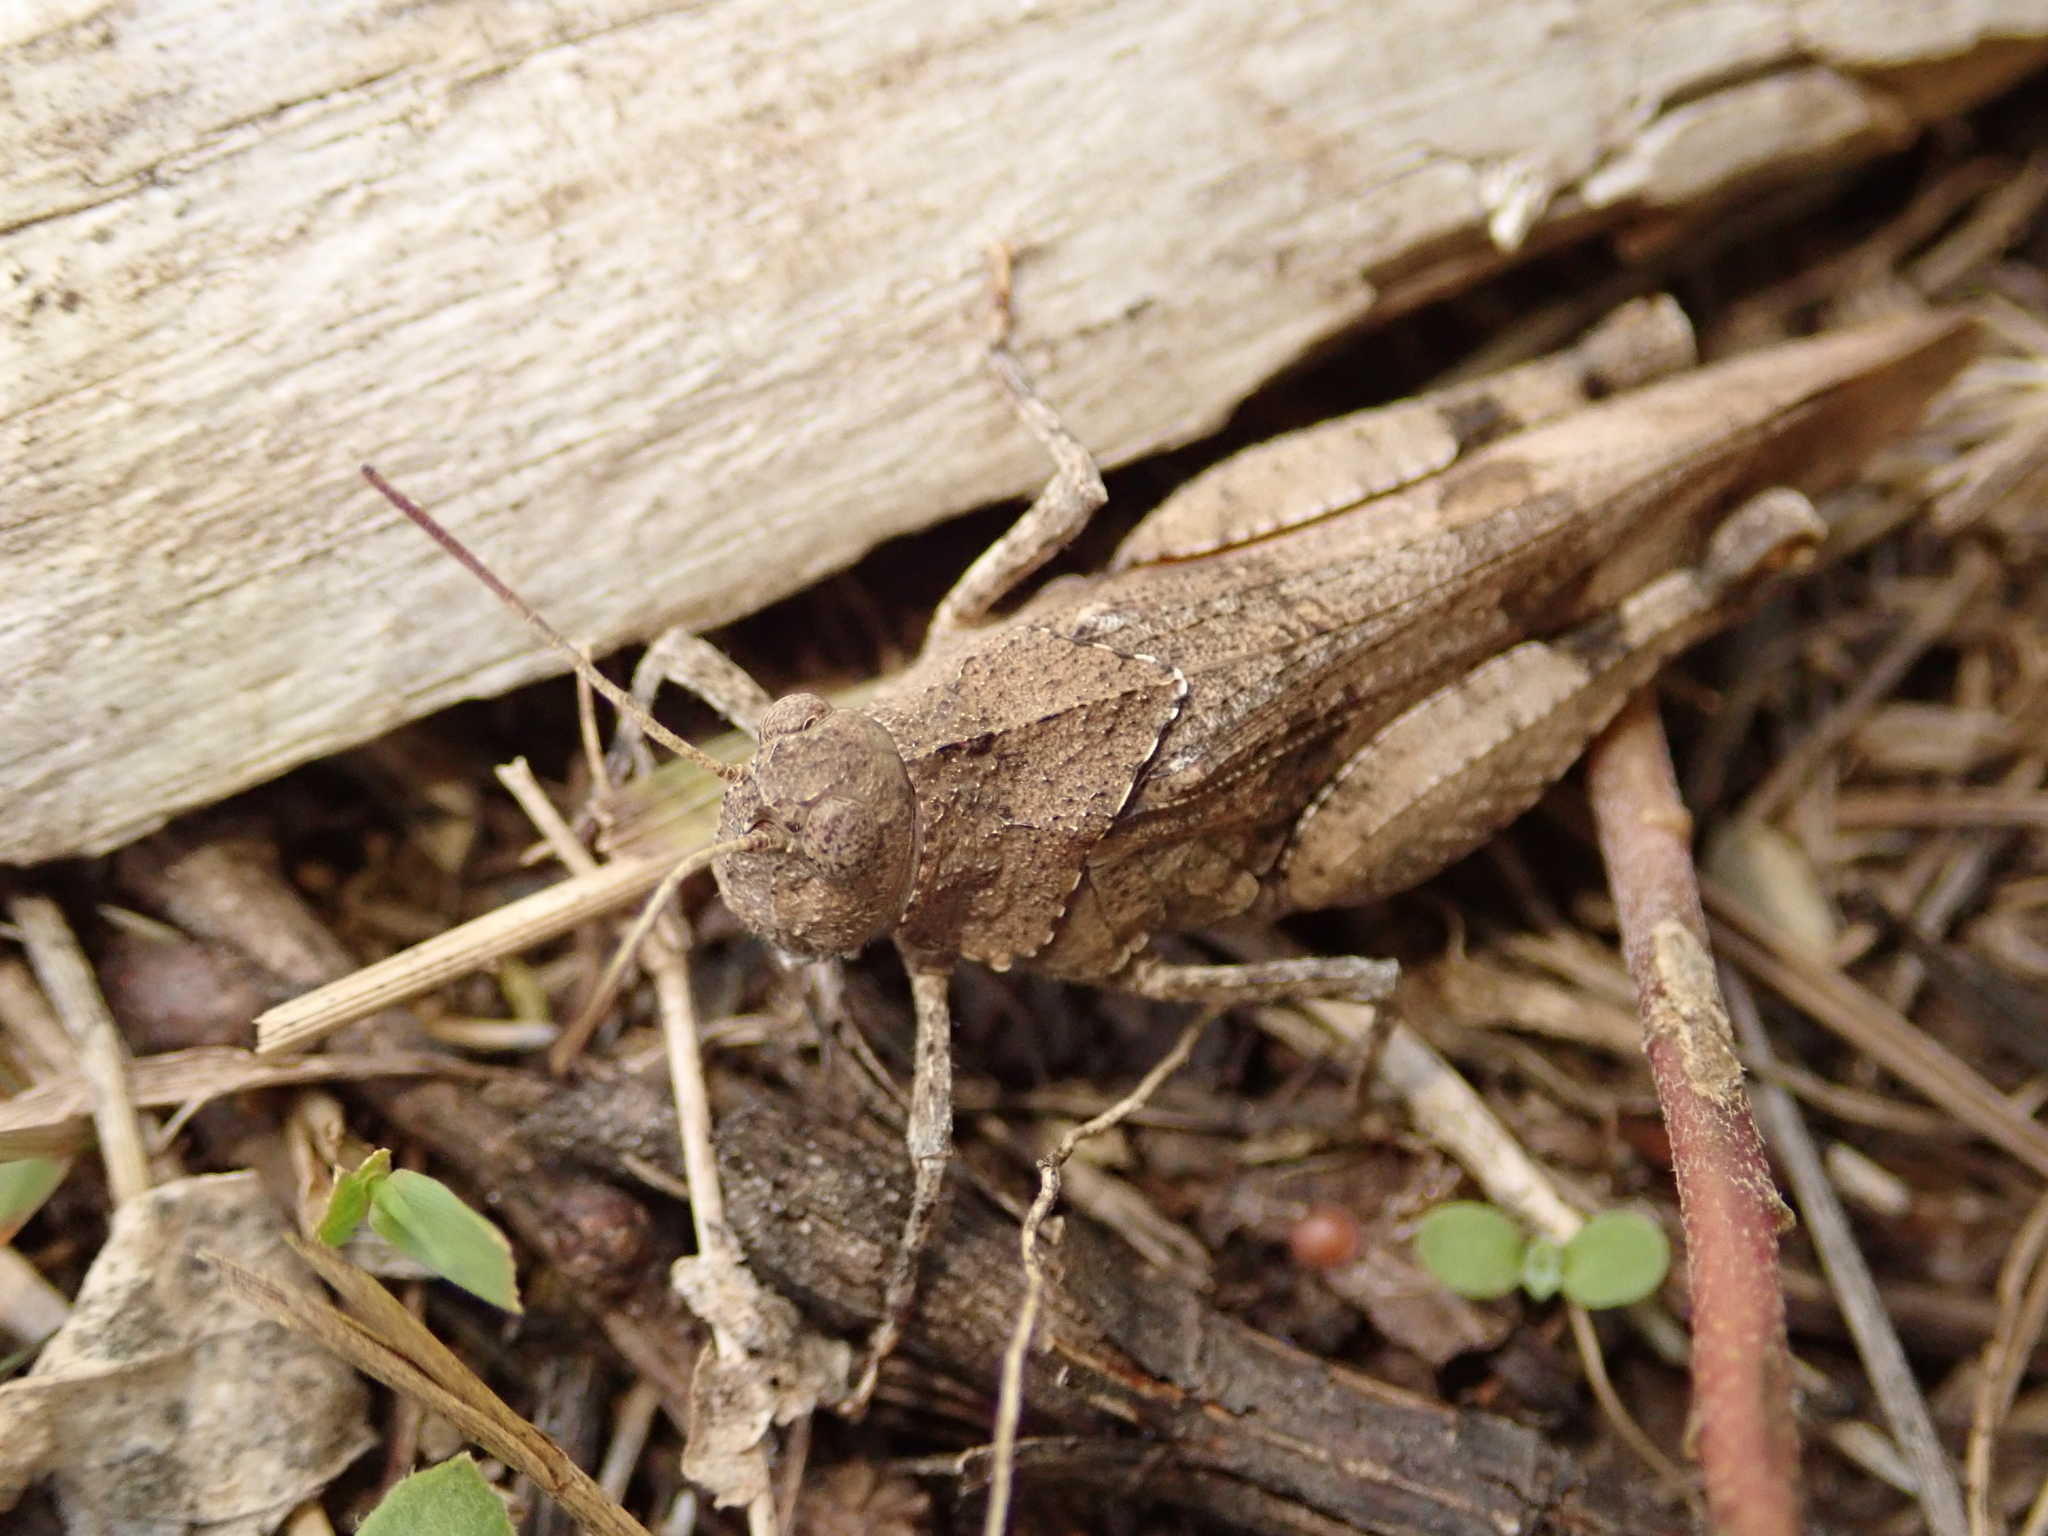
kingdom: Animalia
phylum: Arthropoda
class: Insecta
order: Orthoptera
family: Acrididae
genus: Oedipoda
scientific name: Oedipoda caerulescens
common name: Blue-winged grasshopper
